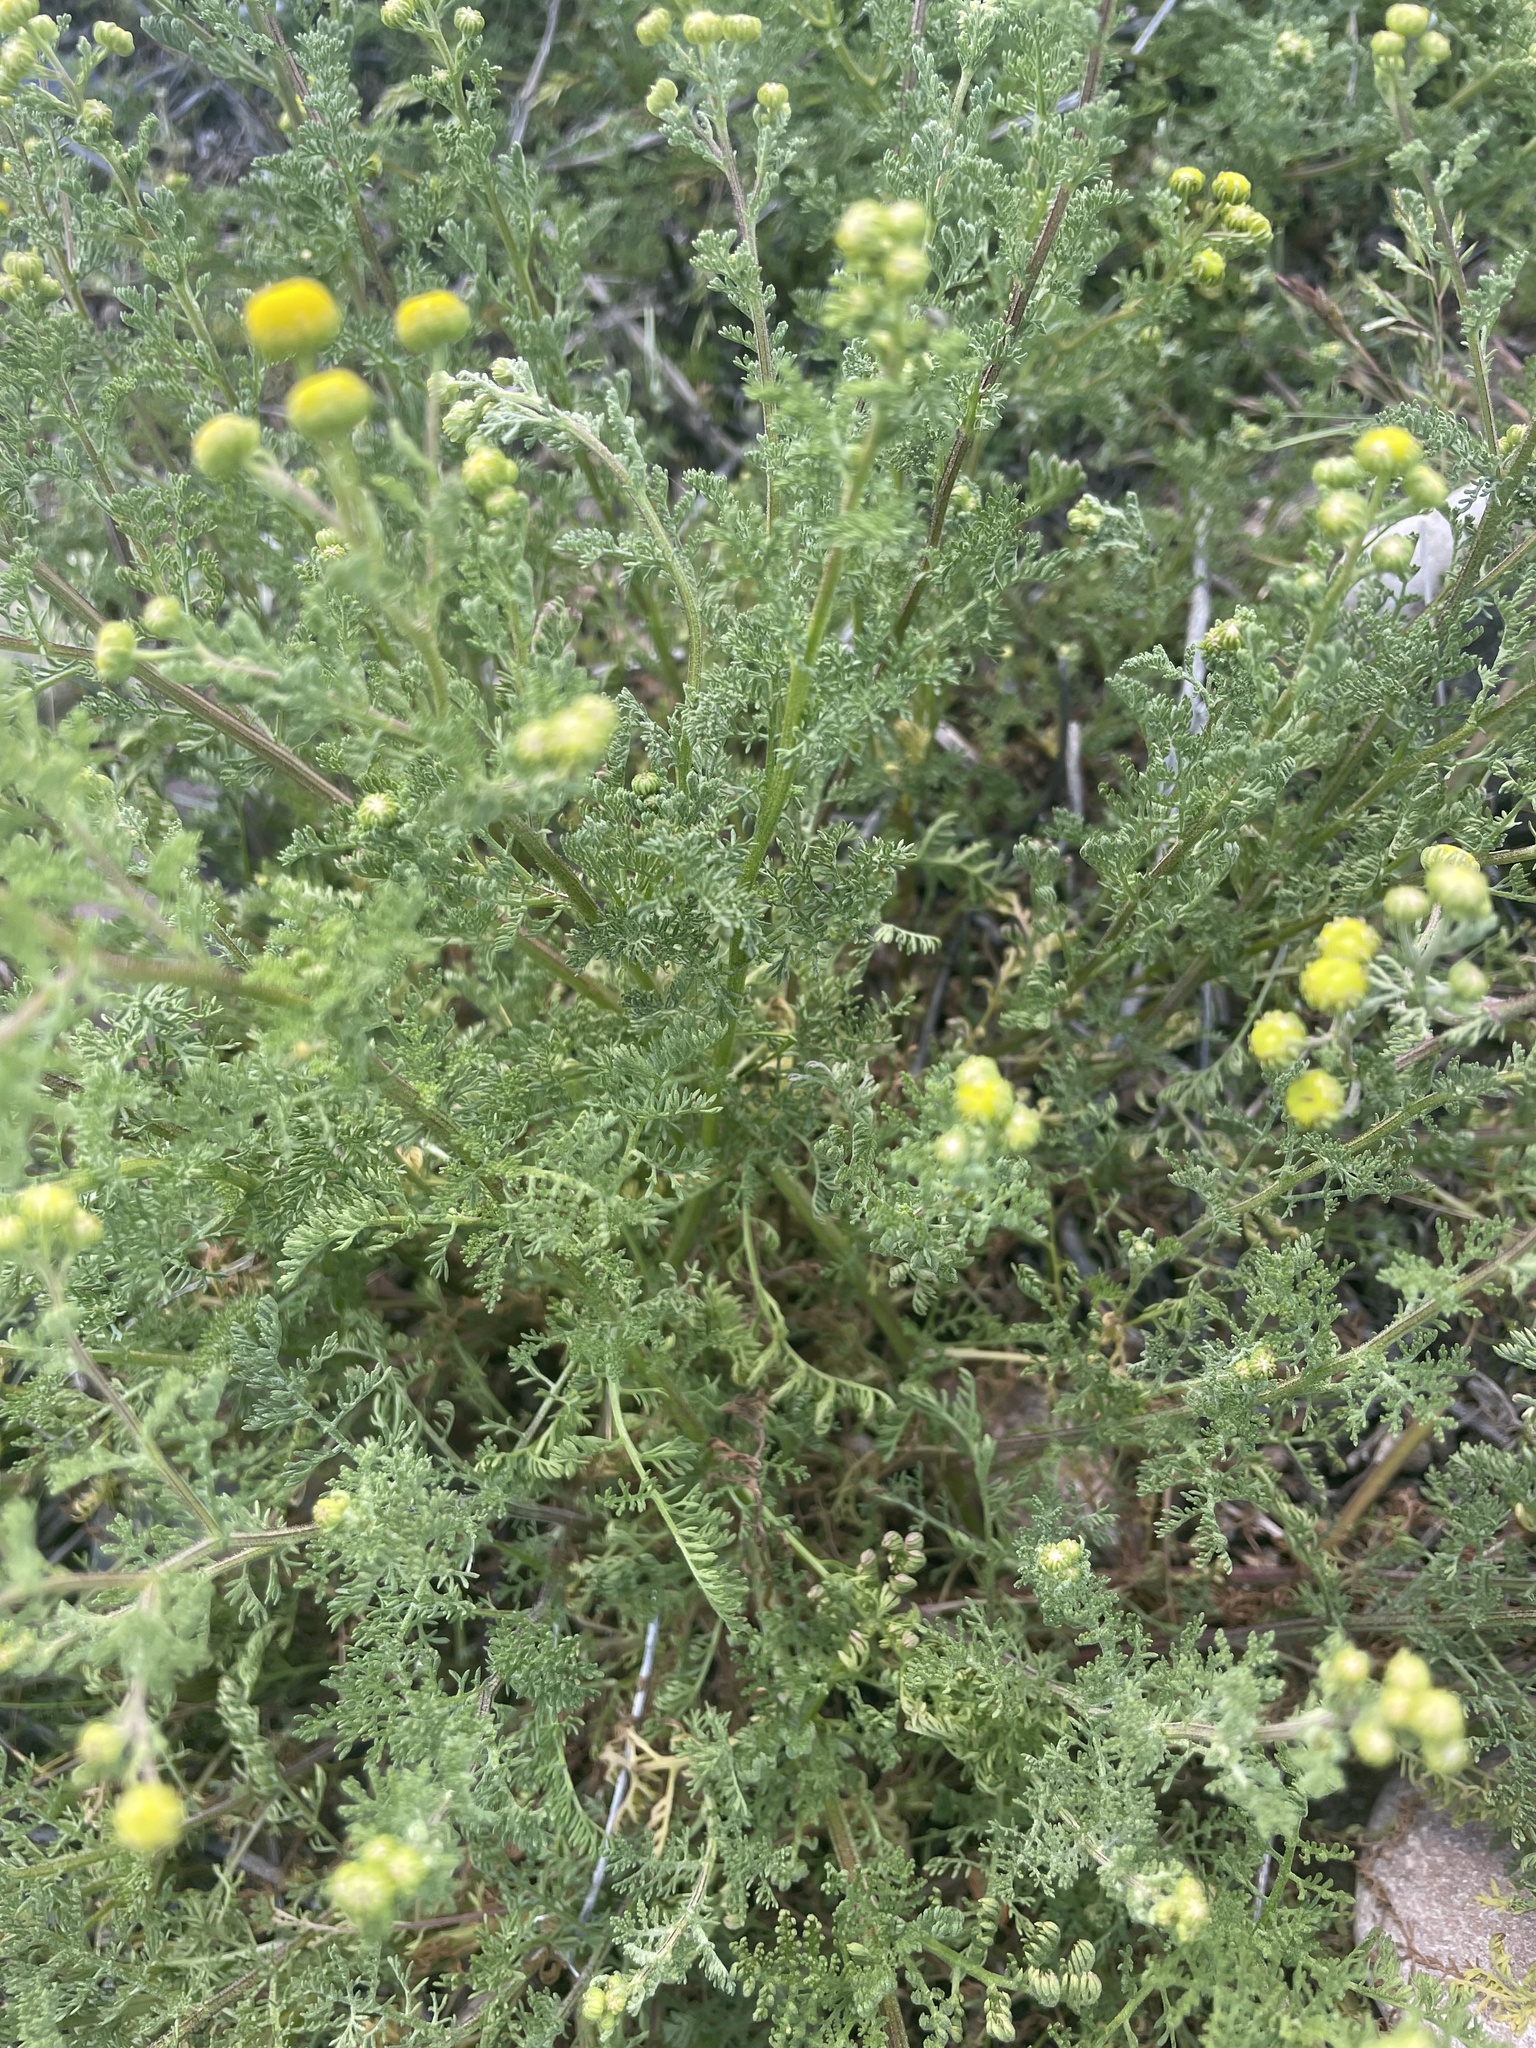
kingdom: Plantae
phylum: Tracheophyta
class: Magnoliopsida
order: Asterales
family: Asteraceae
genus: Oncosiphon
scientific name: Oncosiphon pilulifer
